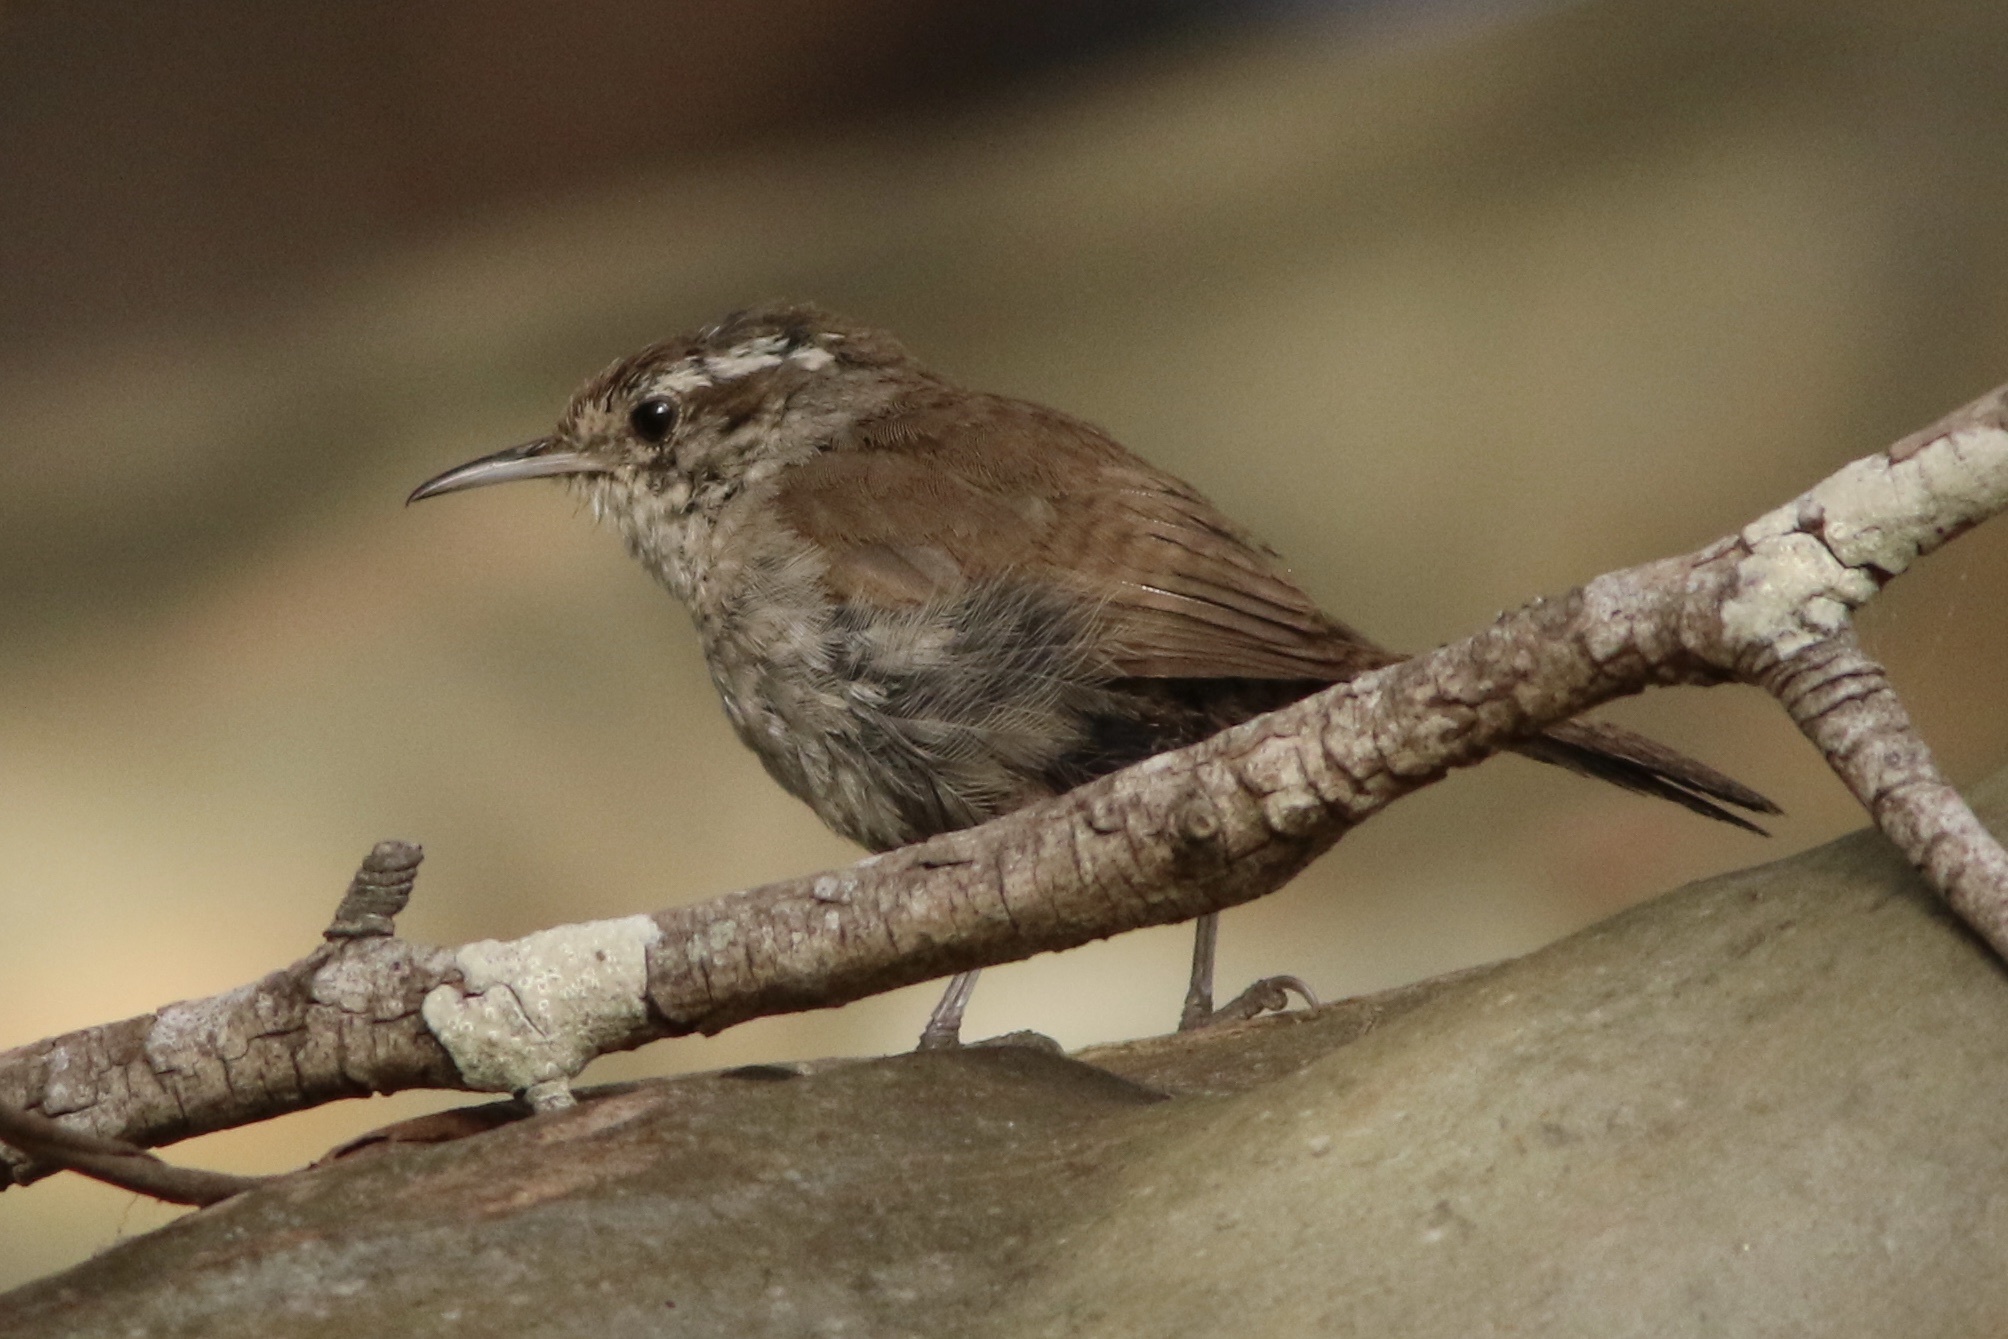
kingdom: Animalia
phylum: Chordata
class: Aves
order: Passeriformes
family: Troglodytidae
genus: Thryomanes
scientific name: Thryomanes bewickii
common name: Bewick's wren
